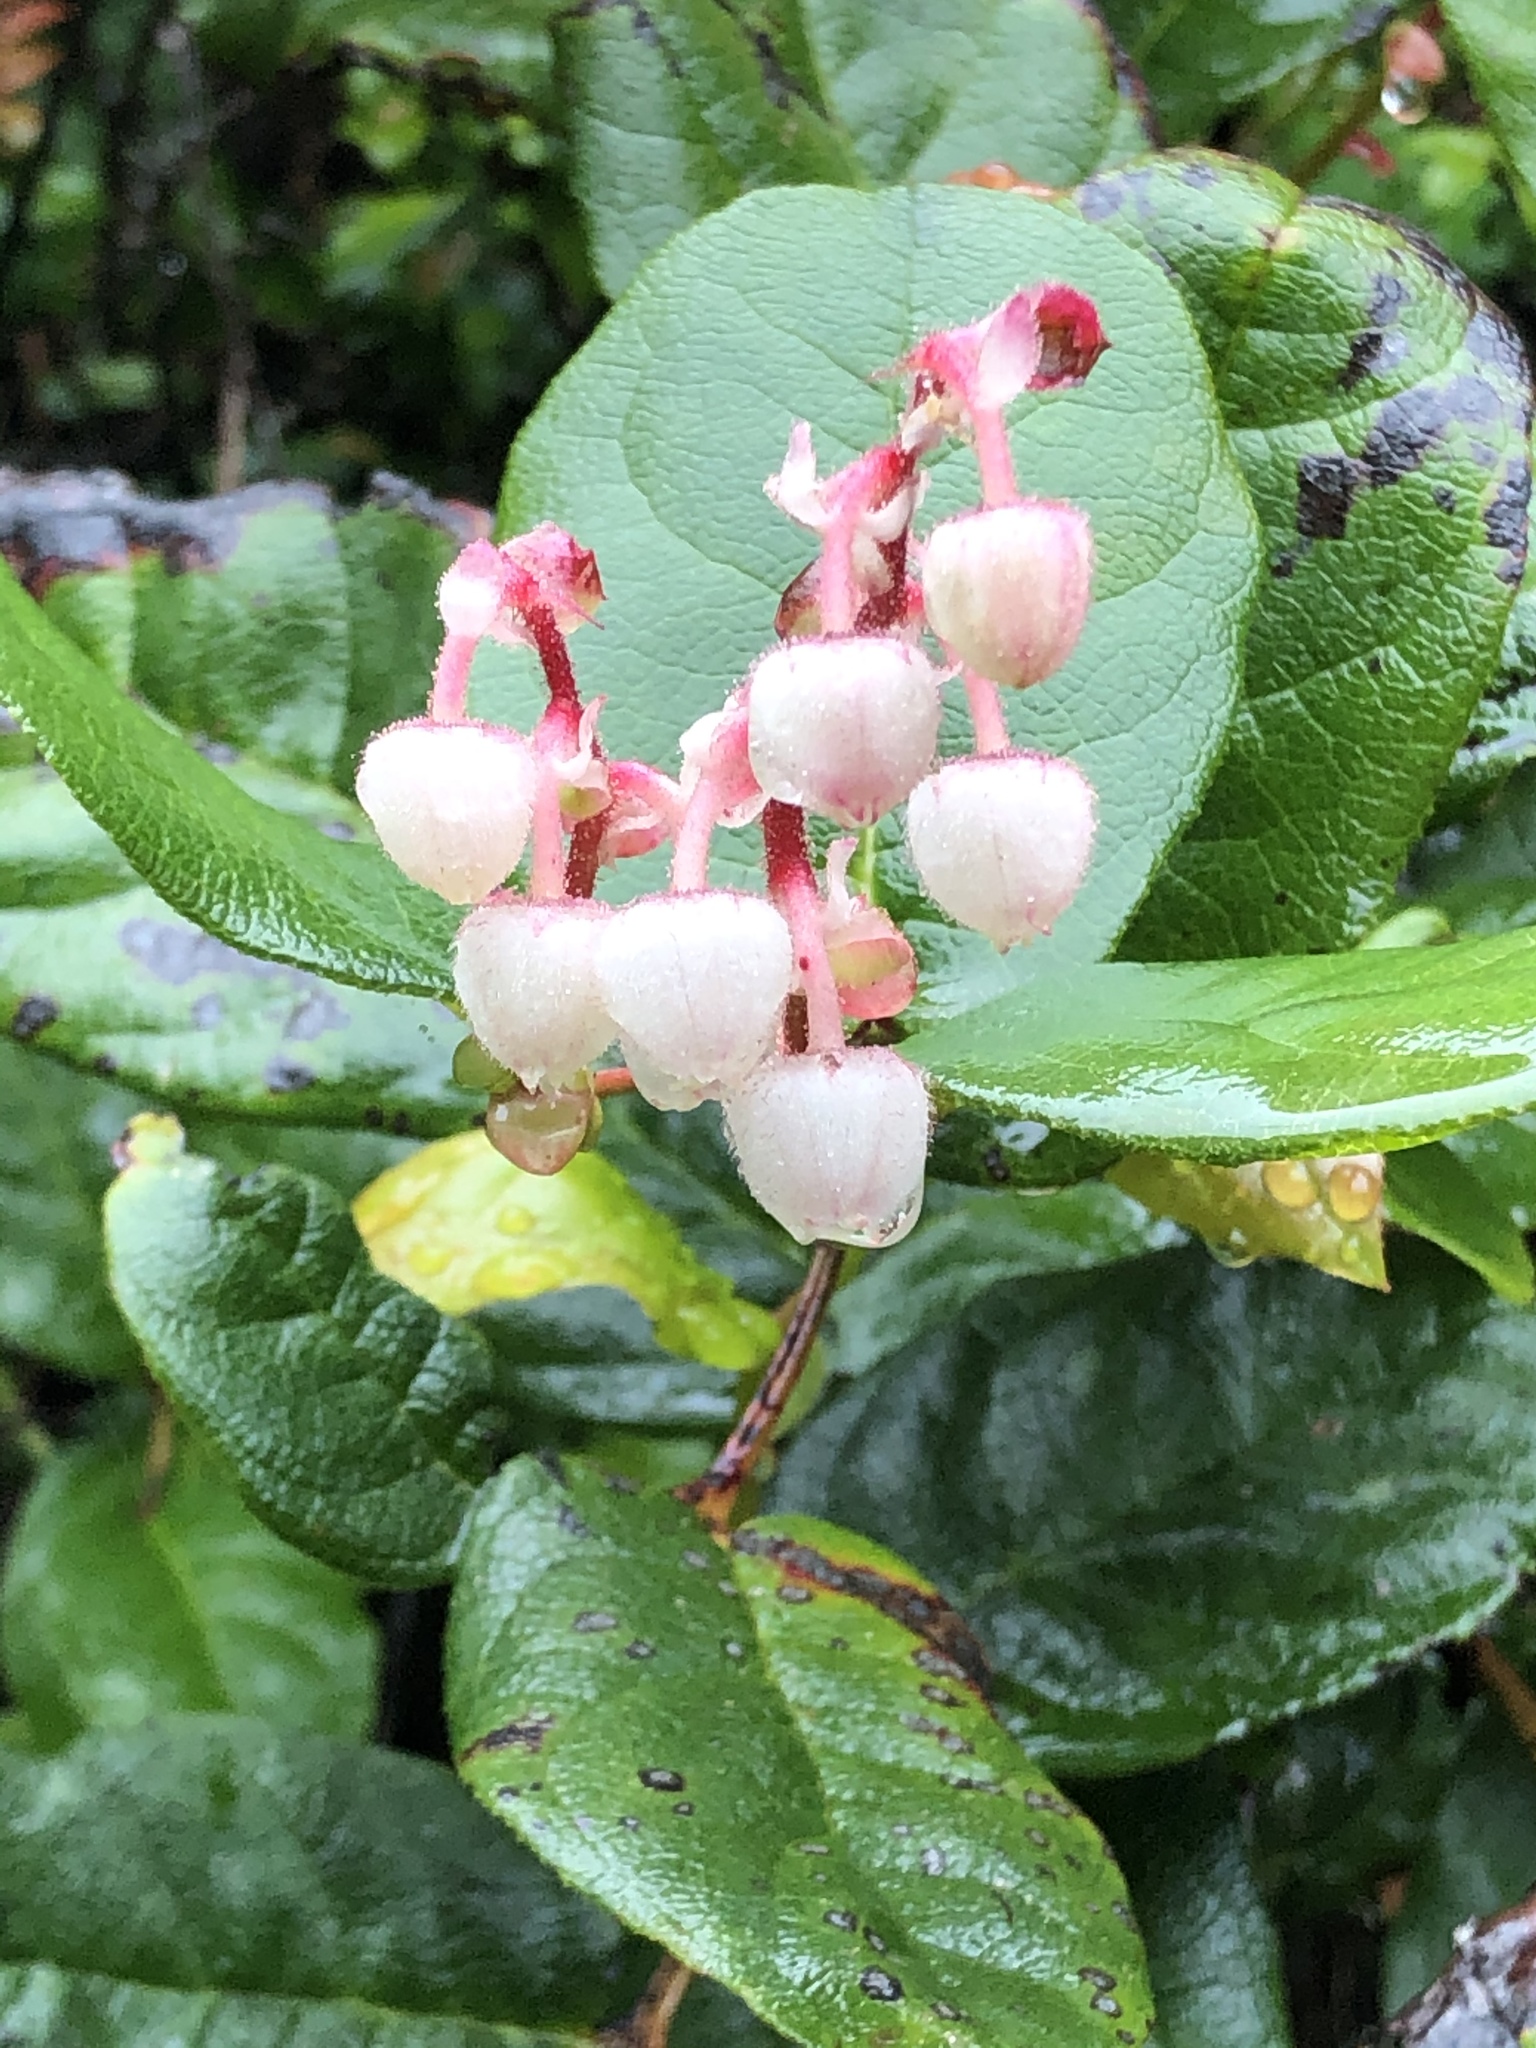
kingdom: Plantae
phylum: Tracheophyta
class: Magnoliopsida
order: Ericales
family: Ericaceae
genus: Gaultheria
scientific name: Gaultheria shallon
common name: Shallon
